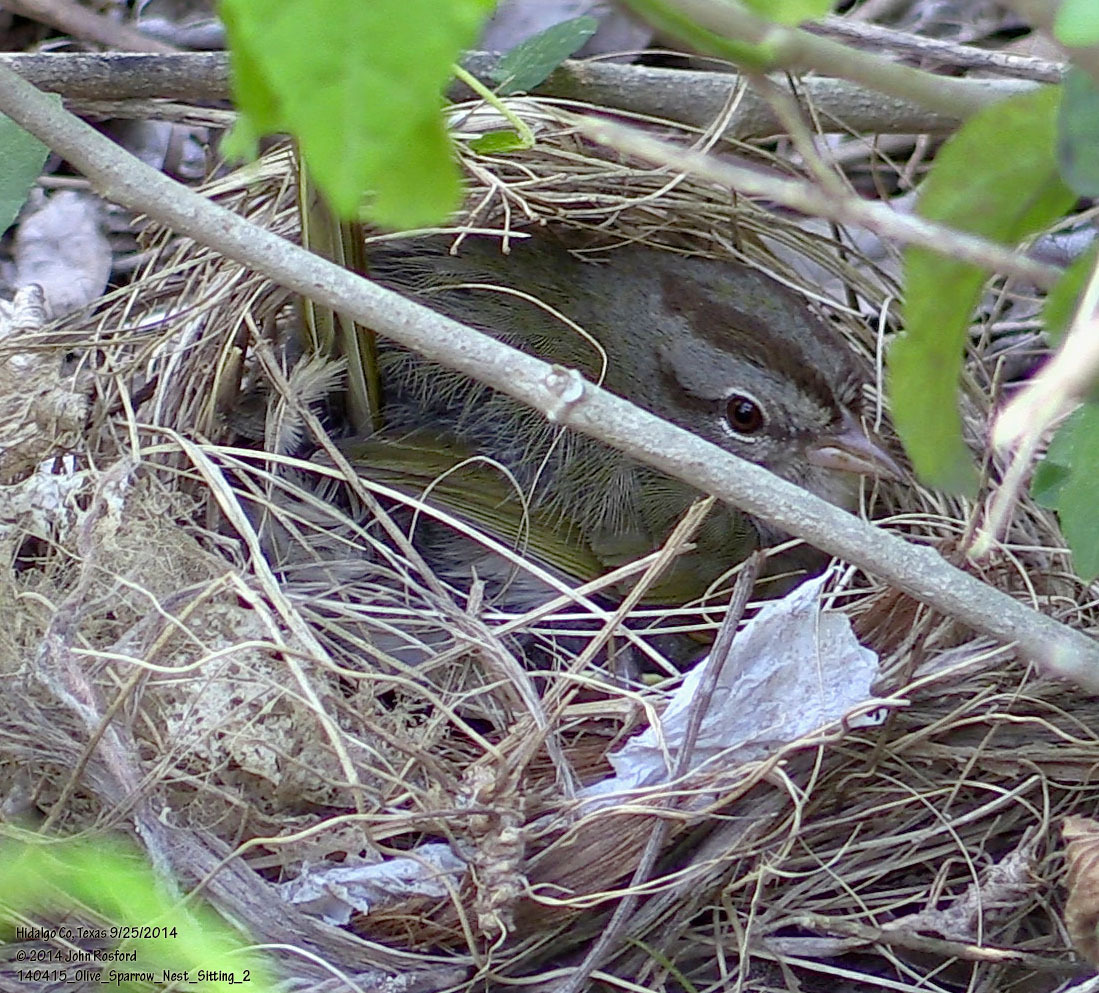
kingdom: Animalia
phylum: Chordata
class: Aves
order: Passeriformes
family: Passerellidae
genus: Arremonops
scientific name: Arremonops rufivirgatus
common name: Olive sparrow
